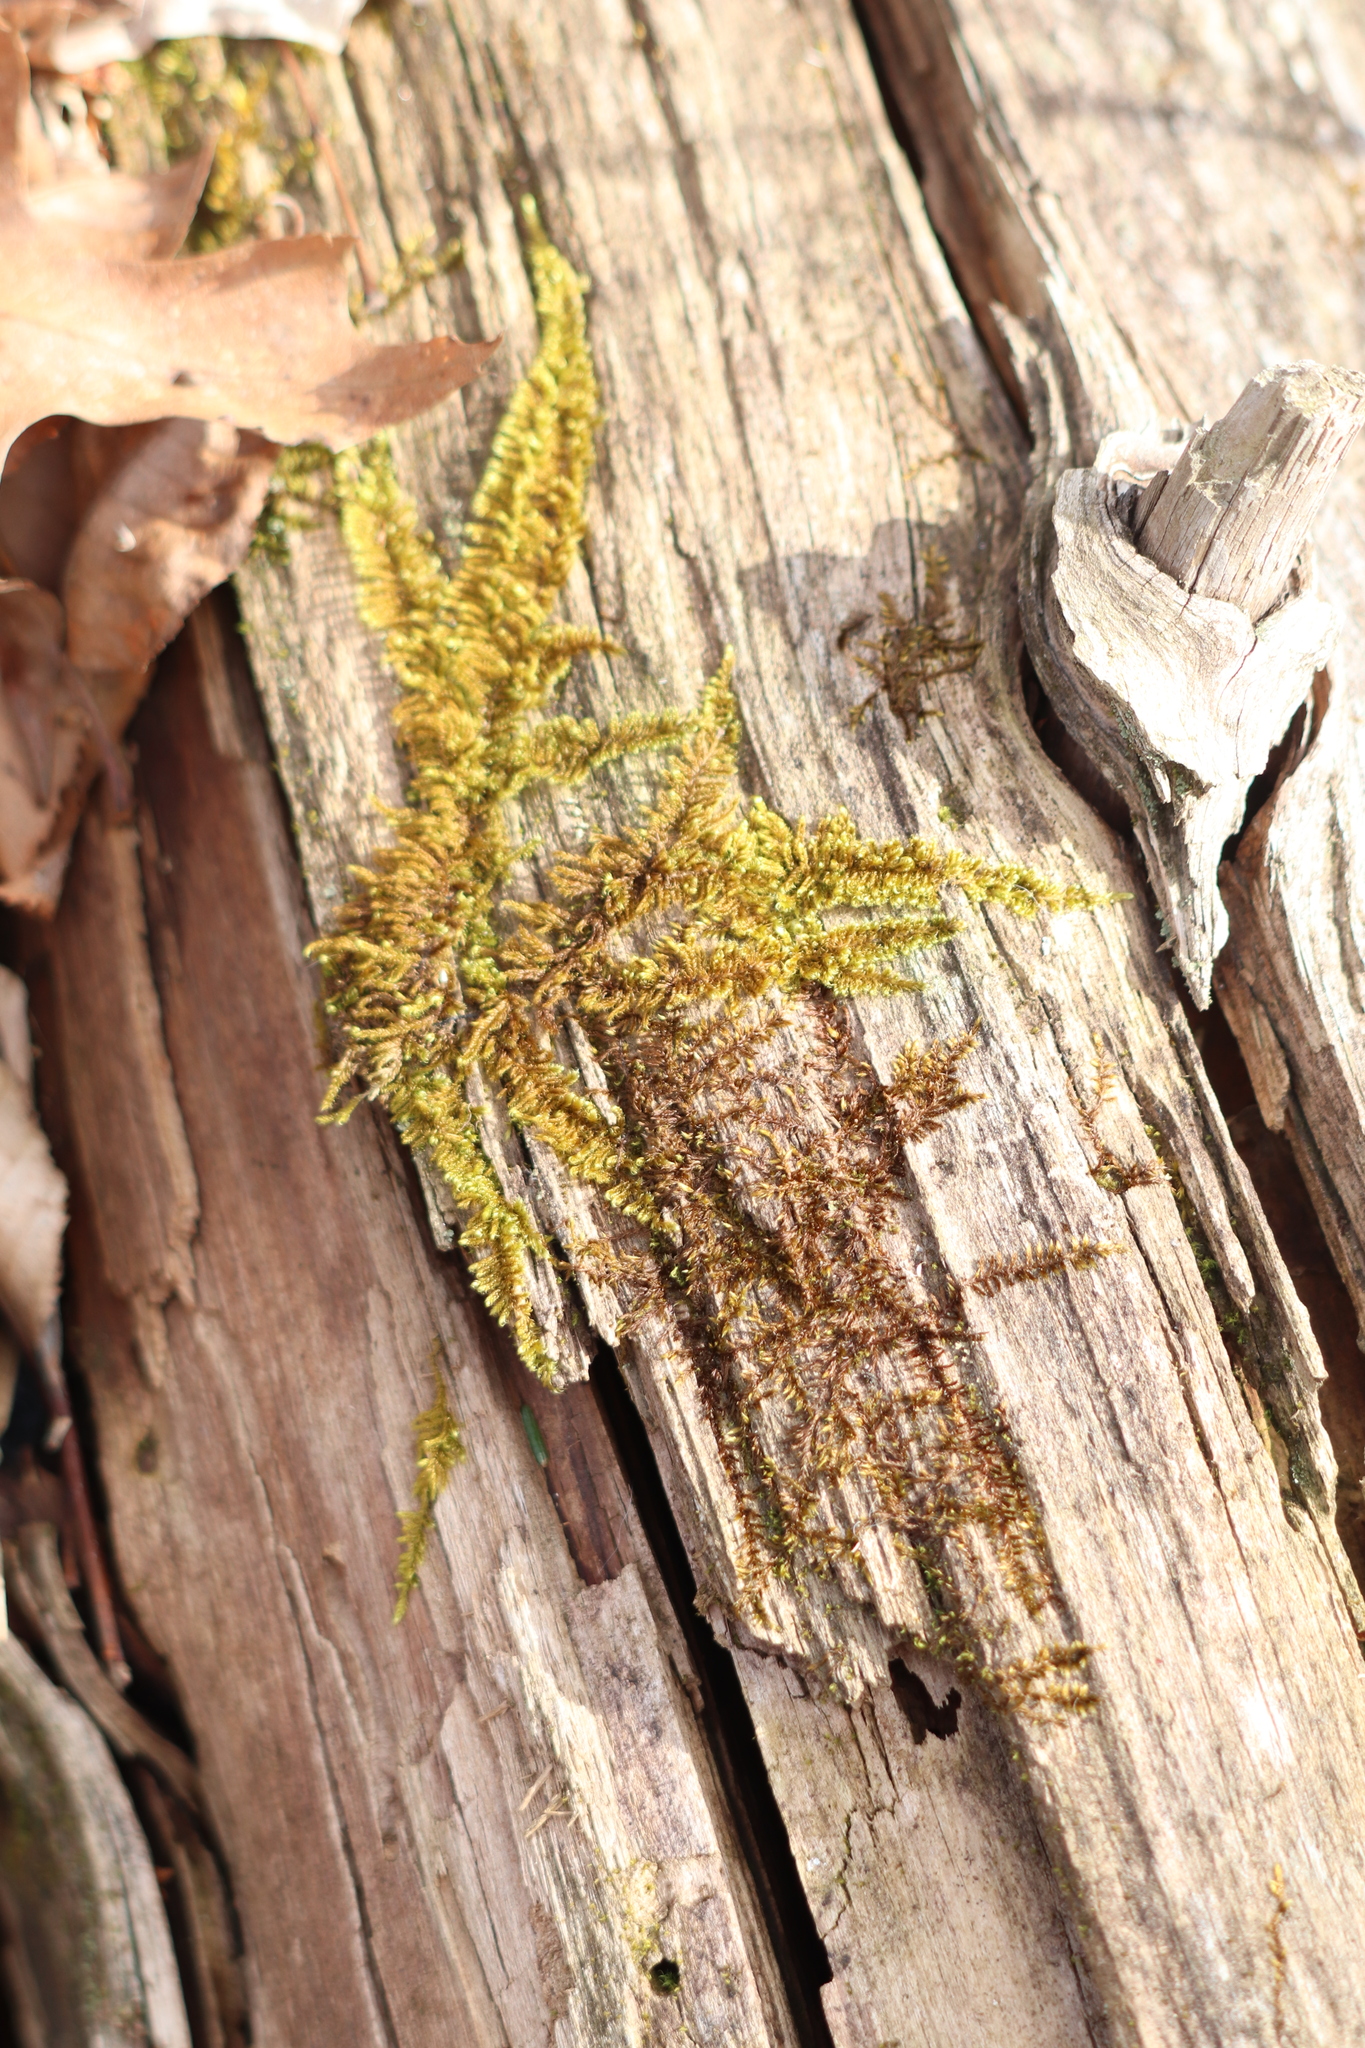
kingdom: Plantae
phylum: Bryophyta
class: Bryopsida
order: Hypnales
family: Callicladiaceae
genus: Callicladium
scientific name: Callicladium imponens
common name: Brocade moss
